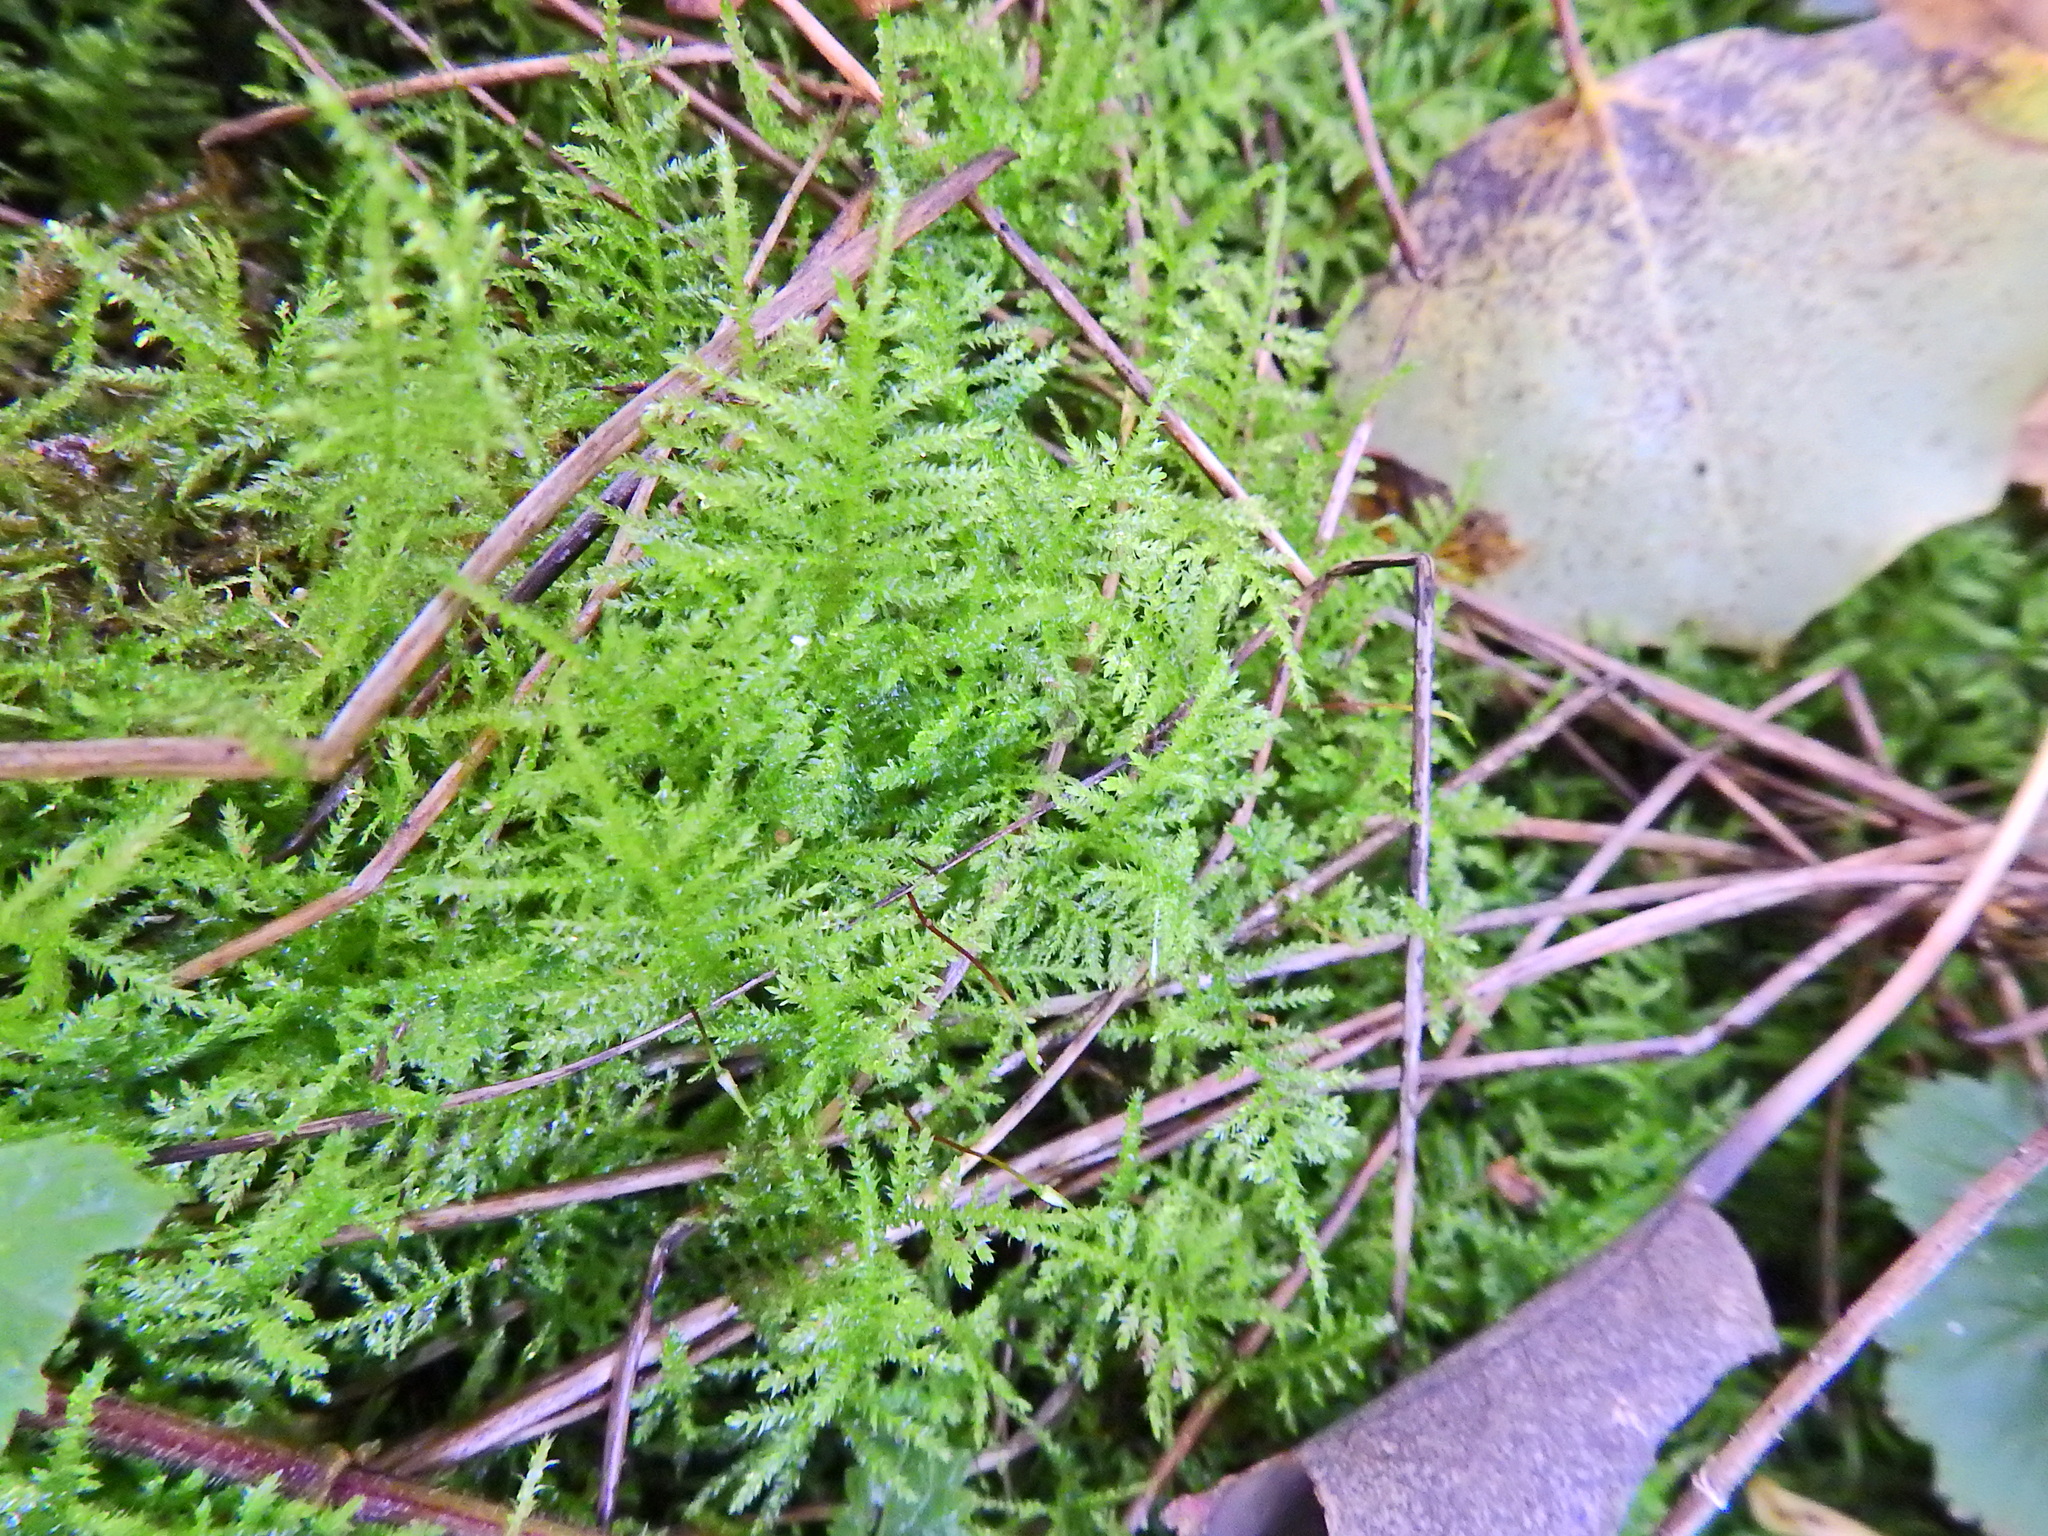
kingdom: Plantae
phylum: Bryophyta
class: Bryopsida
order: Hypnales
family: Brachytheciaceae
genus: Kindbergia
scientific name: Kindbergia praelonga
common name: Slender beaked moss
